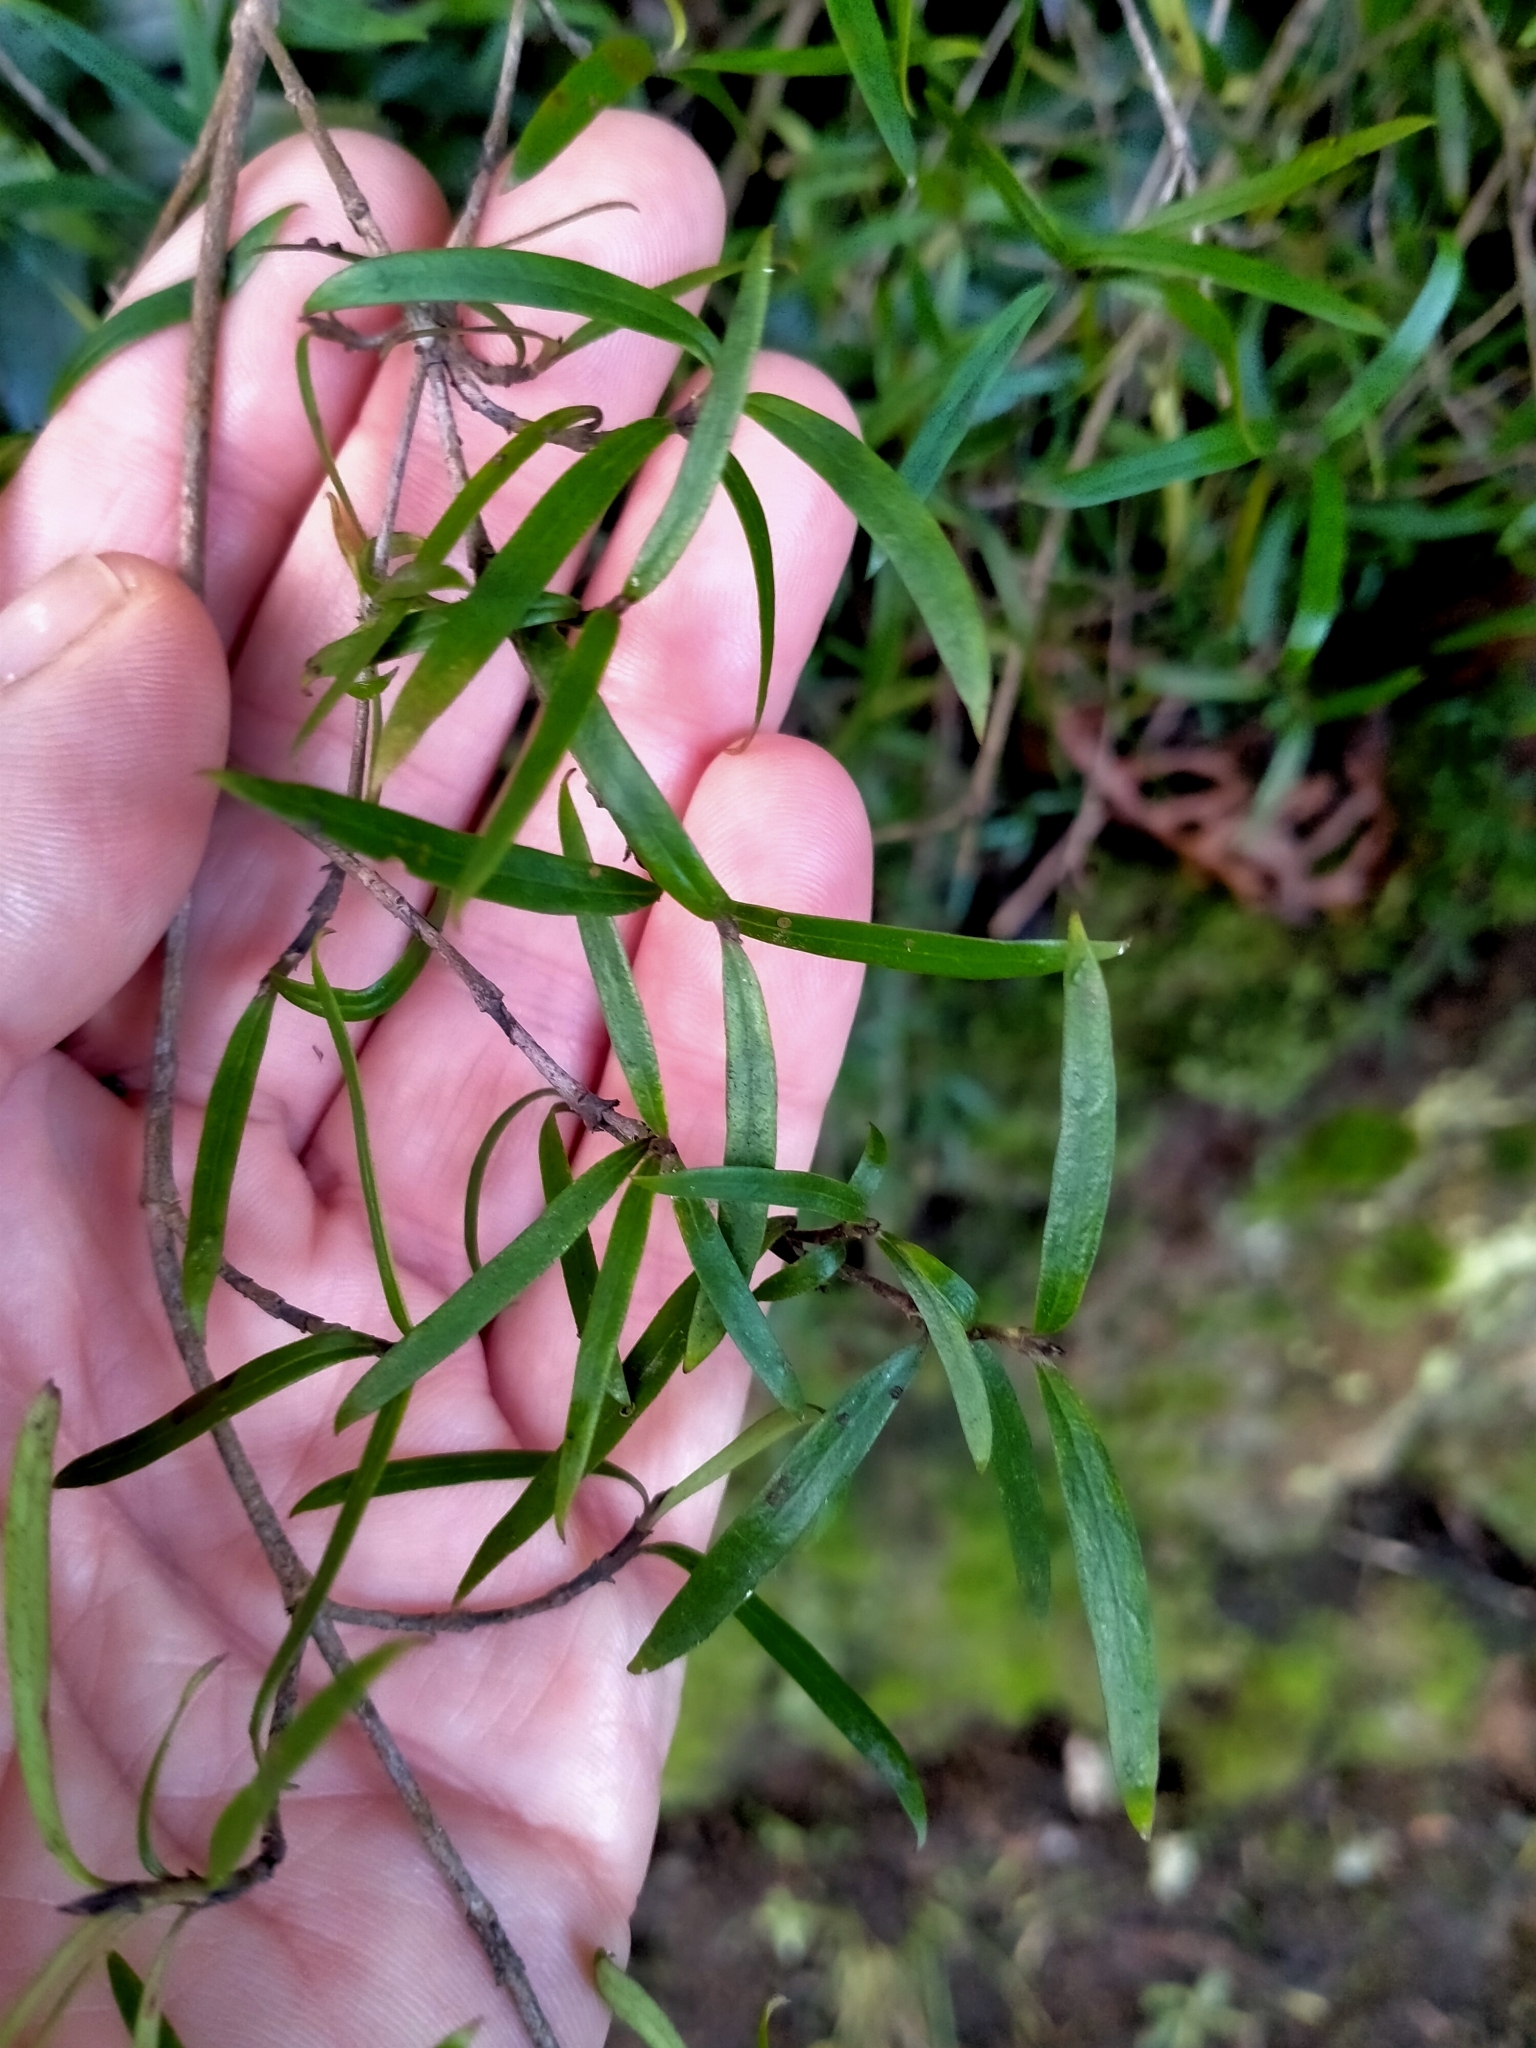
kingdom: Plantae
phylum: Tracheophyta
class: Magnoliopsida
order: Gentianales
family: Rubiaceae
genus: Coprosma
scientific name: Coprosma linariifolia
